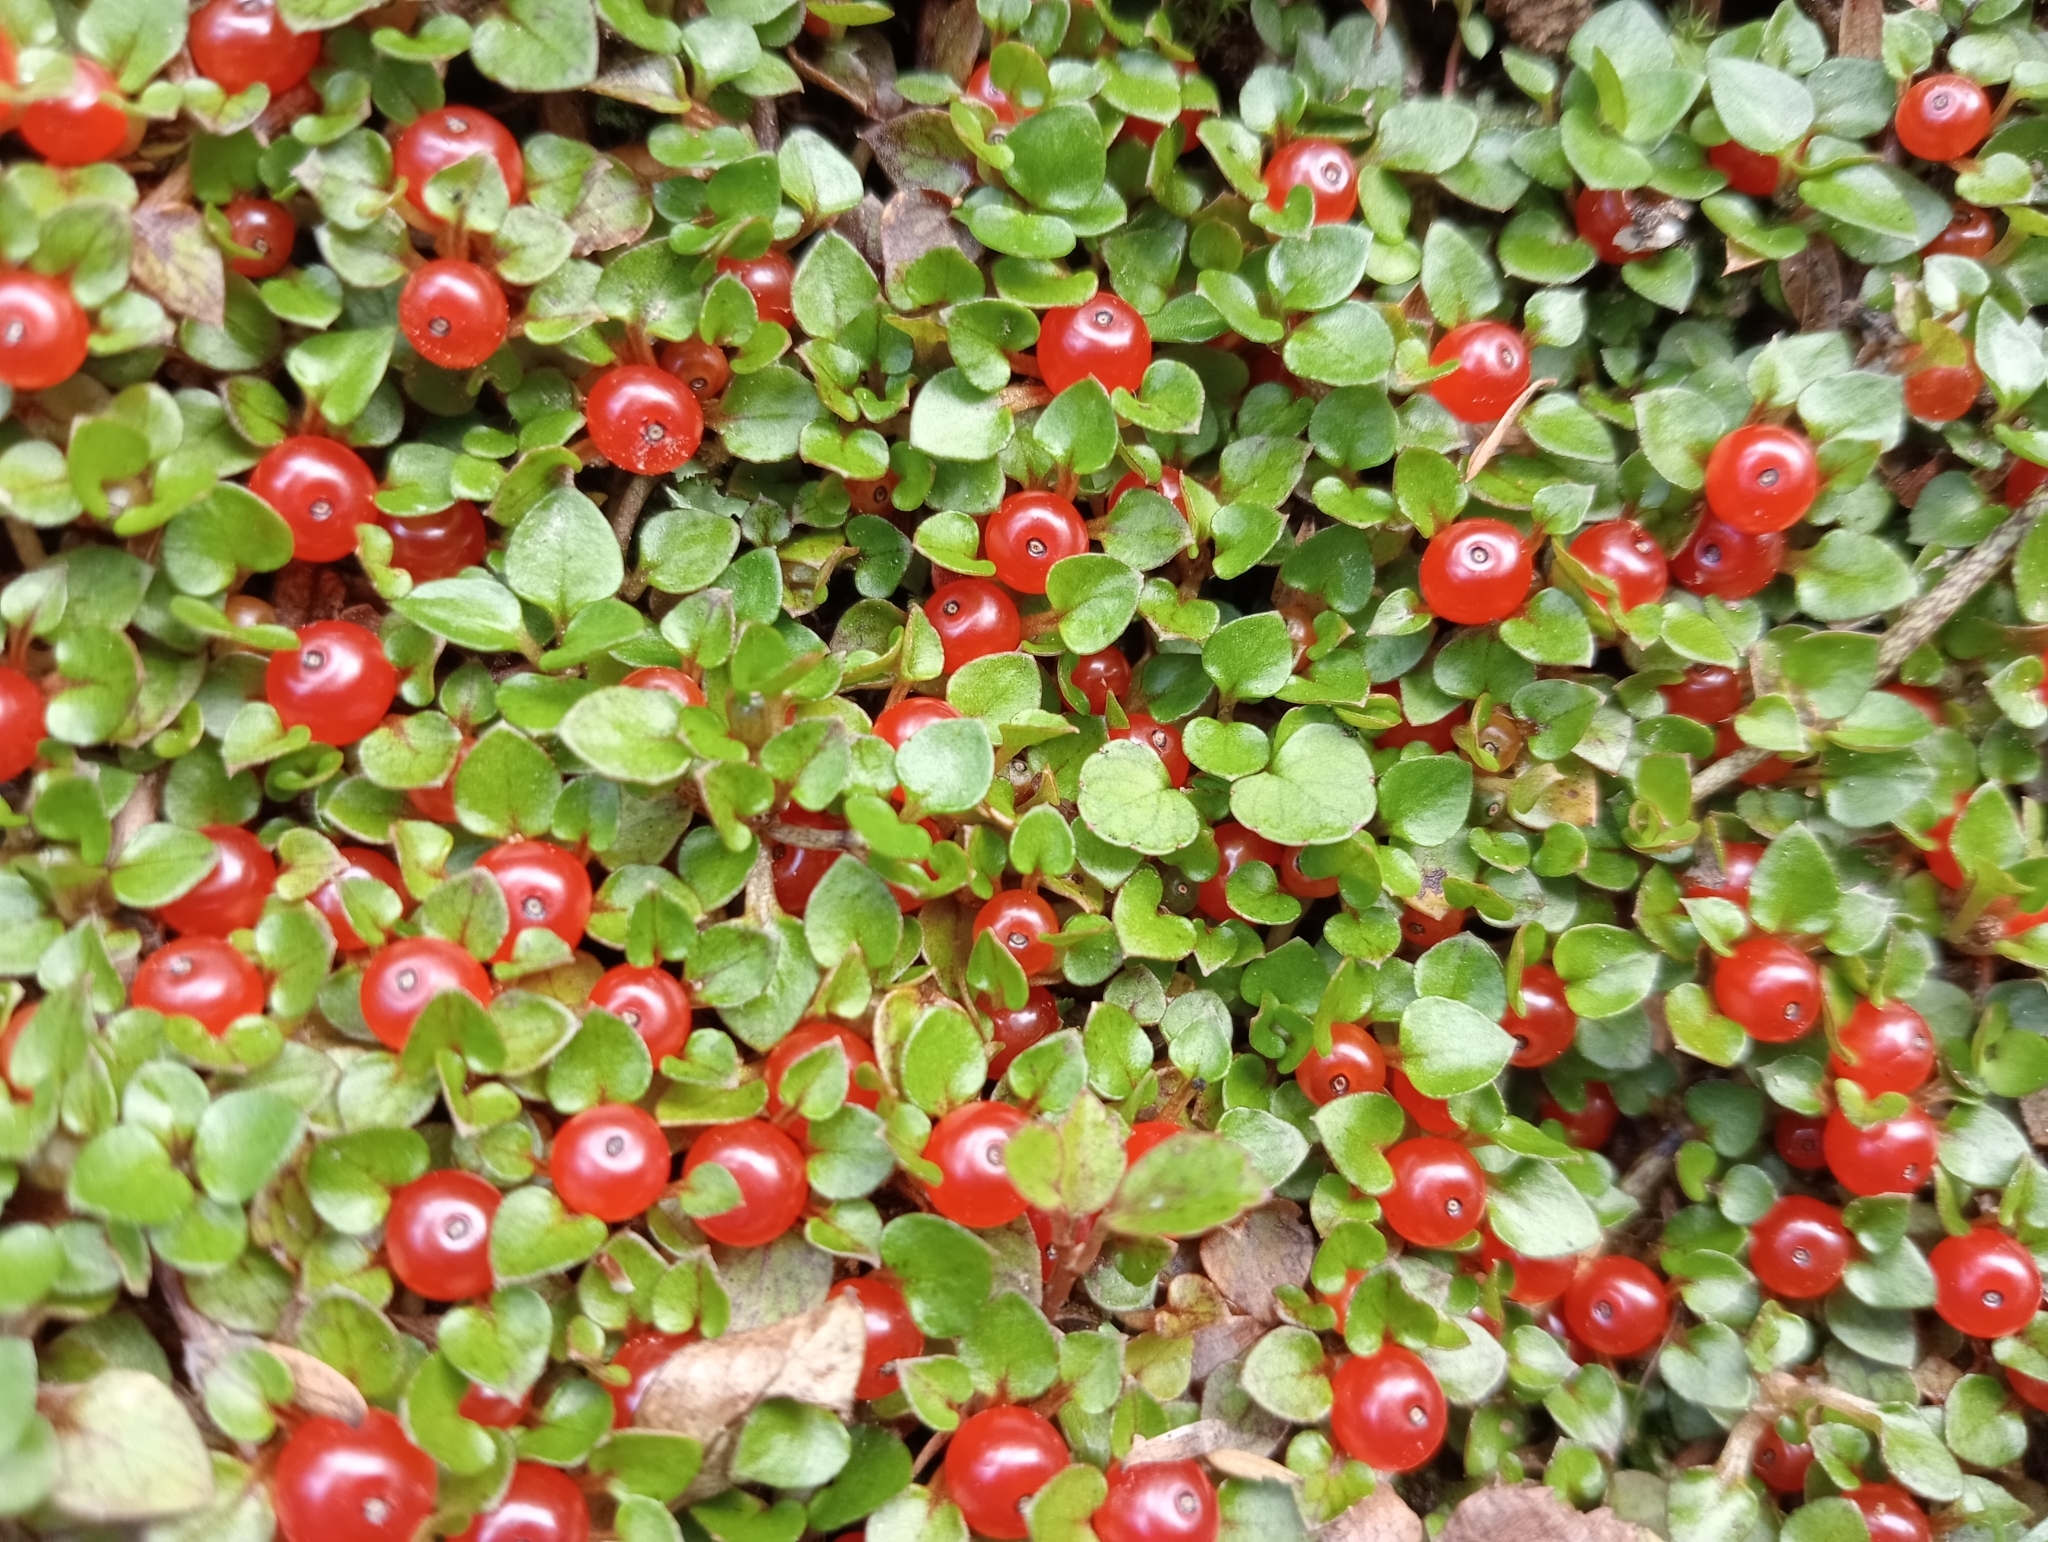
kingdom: Plantae
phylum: Tracheophyta
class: Magnoliopsida
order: Gentianales
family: Rubiaceae
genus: Nertera
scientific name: Nertera granadensis
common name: Beadplant
